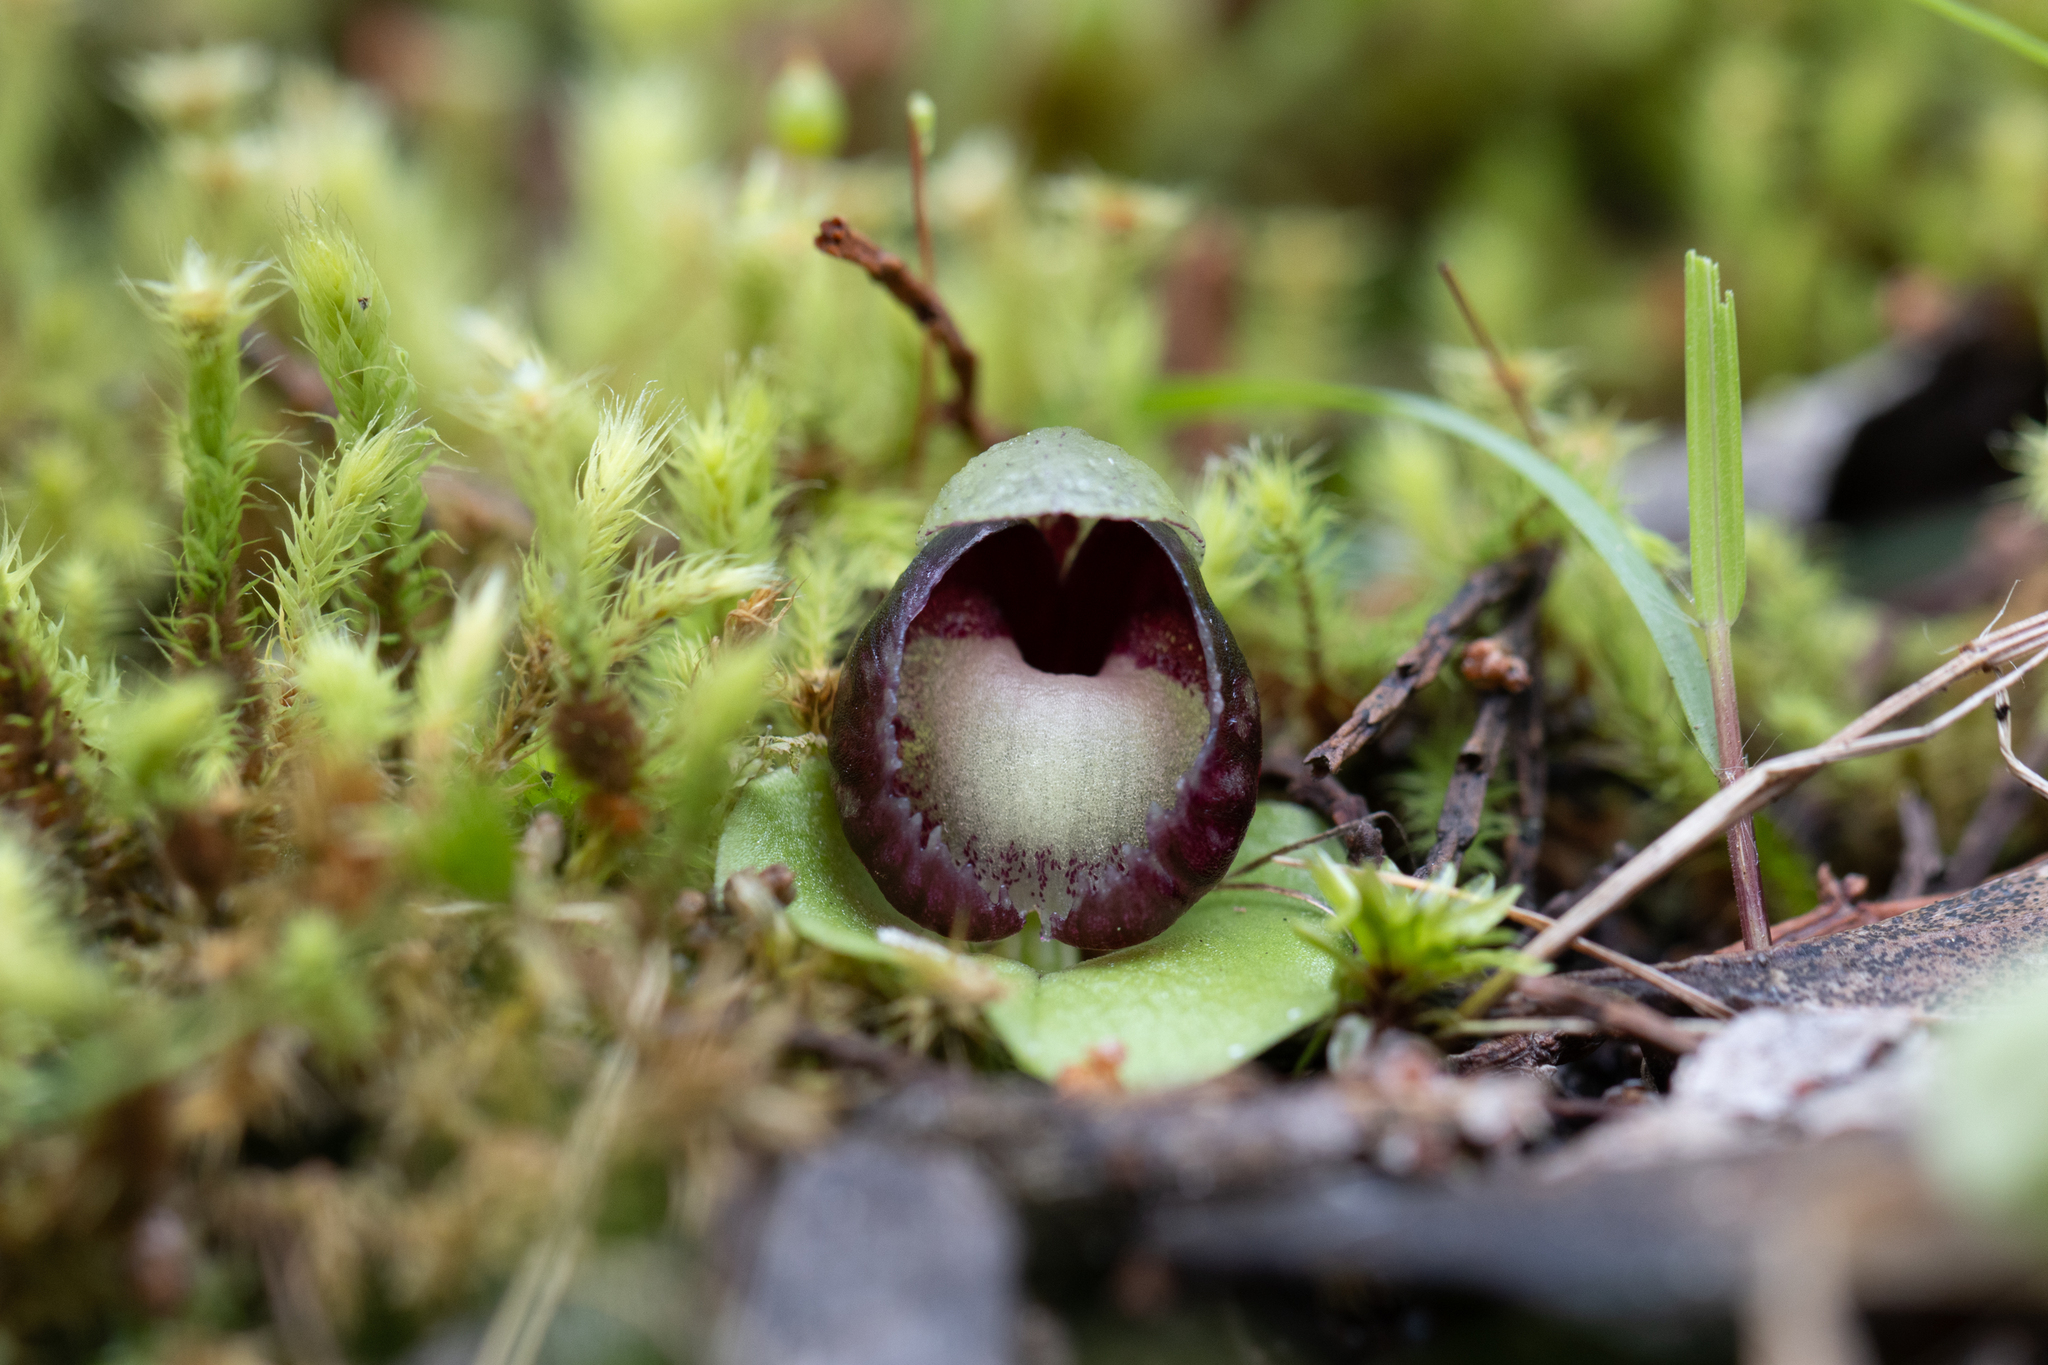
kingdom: Plantae
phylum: Tracheophyta
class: Liliopsida
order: Asparagales
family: Orchidaceae
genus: Corybas
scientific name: Corybas incurvus
